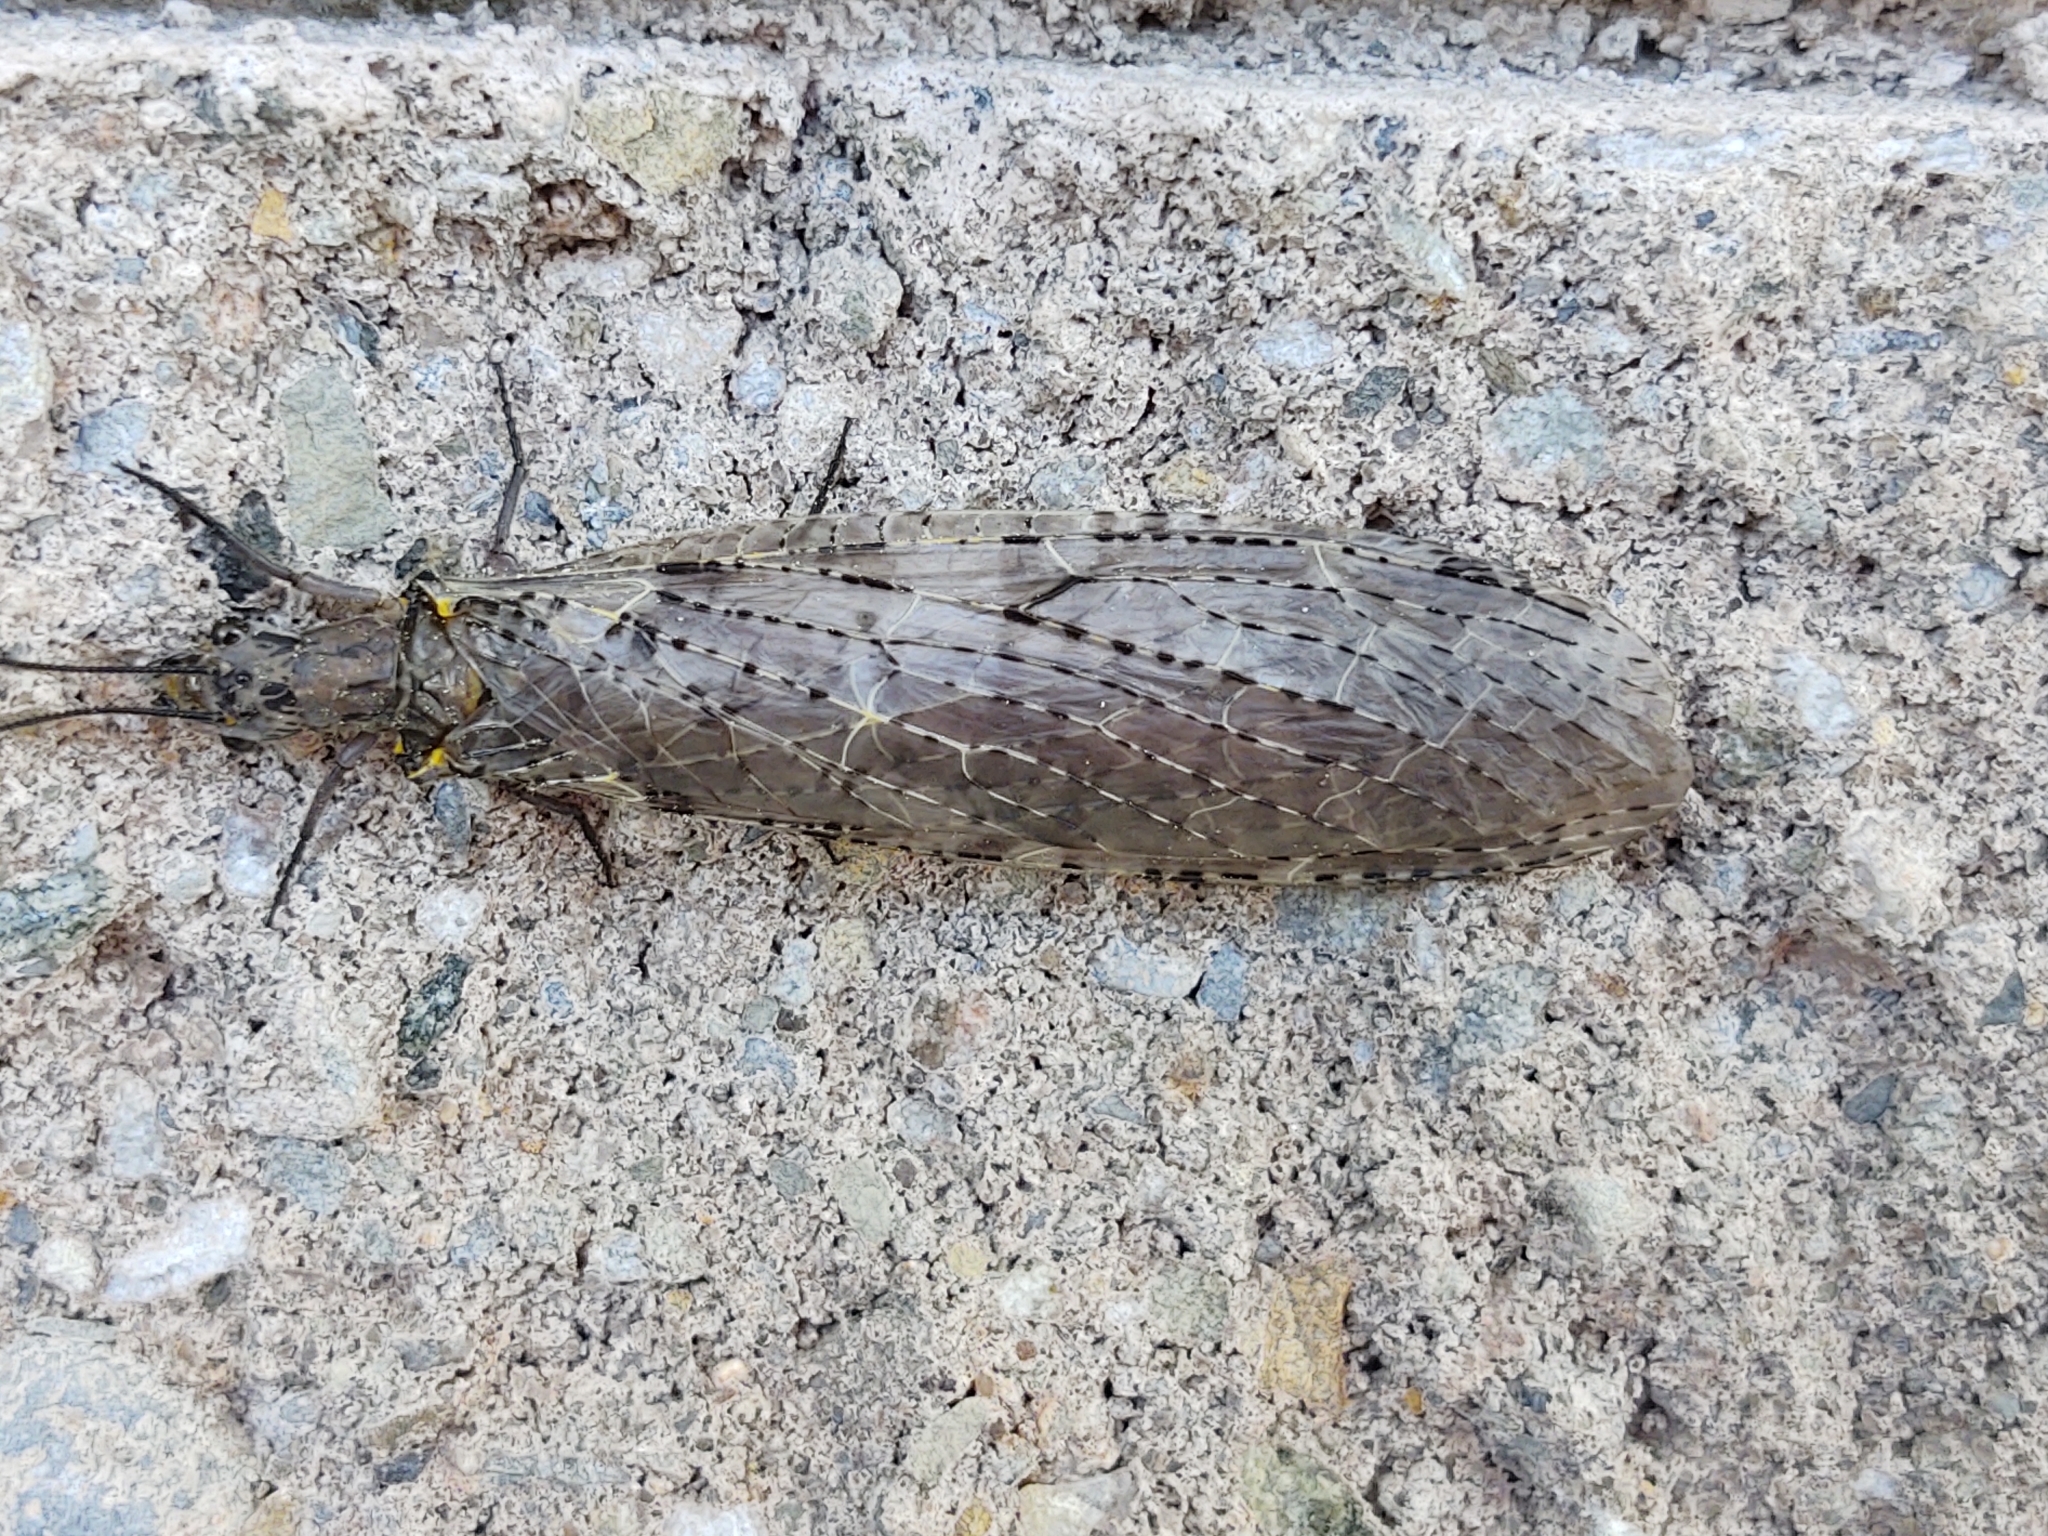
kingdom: Animalia
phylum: Arthropoda
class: Insecta
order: Megaloptera
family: Corydalidae
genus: Chauliodes
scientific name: Chauliodes rastricornis
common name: Spring fishfly
